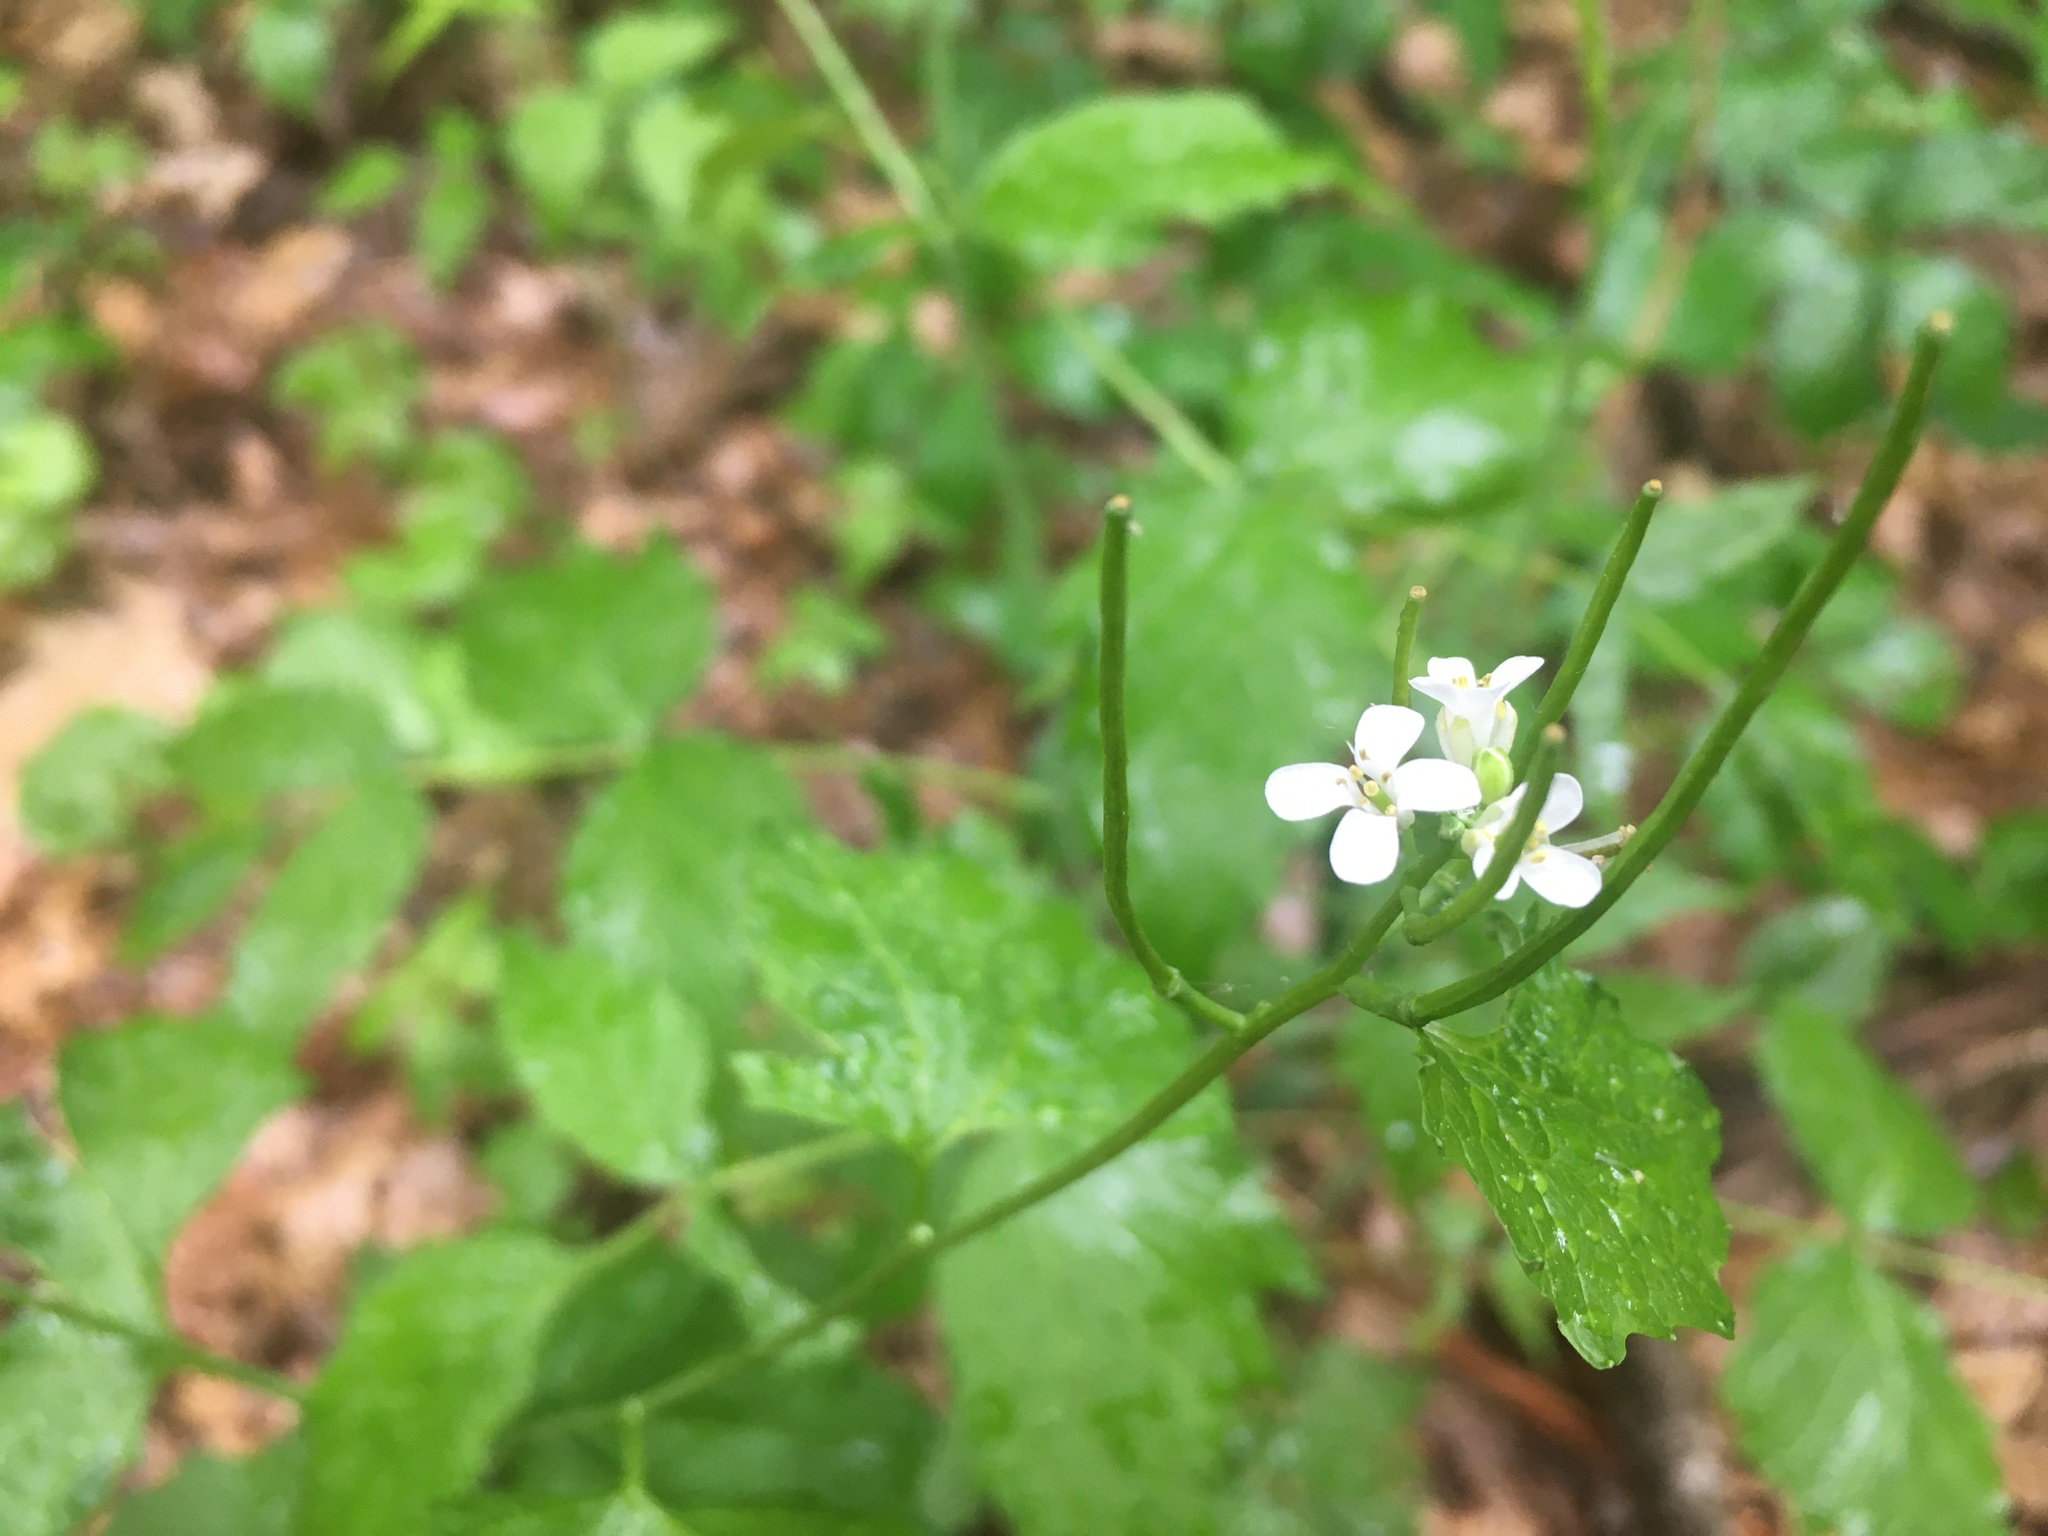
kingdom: Plantae
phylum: Tracheophyta
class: Magnoliopsida
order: Brassicales
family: Brassicaceae
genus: Alliaria
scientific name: Alliaria petiolata
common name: Garlic mustard
